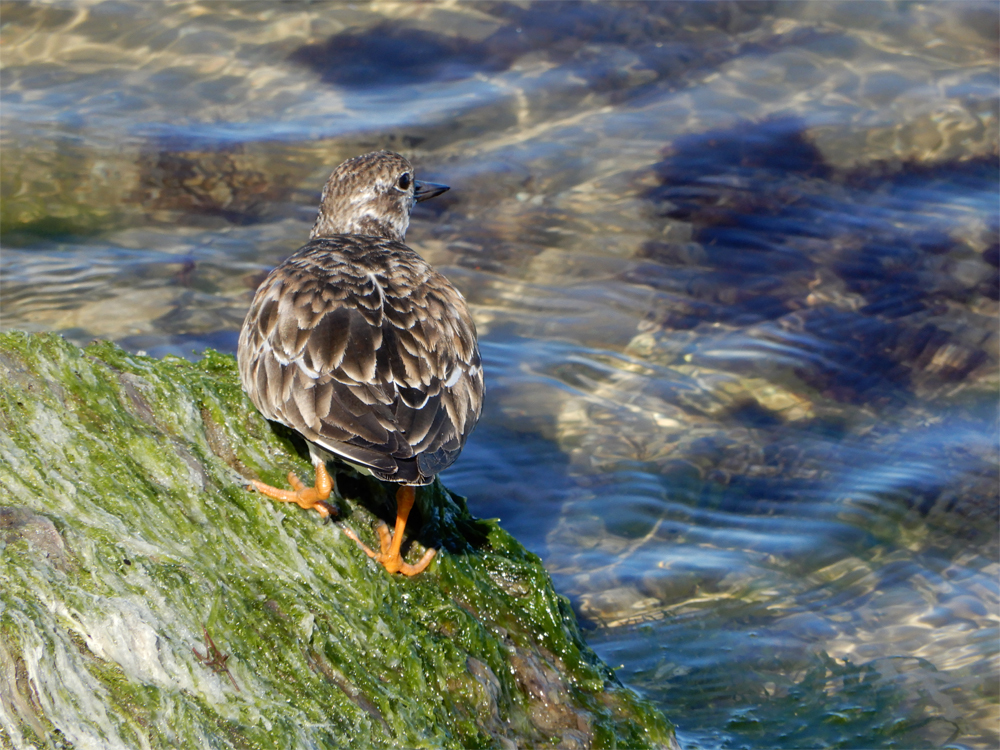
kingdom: Animalia
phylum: Chordata
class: Aves
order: Charadriiformes
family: Scolopacidae
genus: Arenaria
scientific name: Arenaria interpres
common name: Ruddy turnstone
